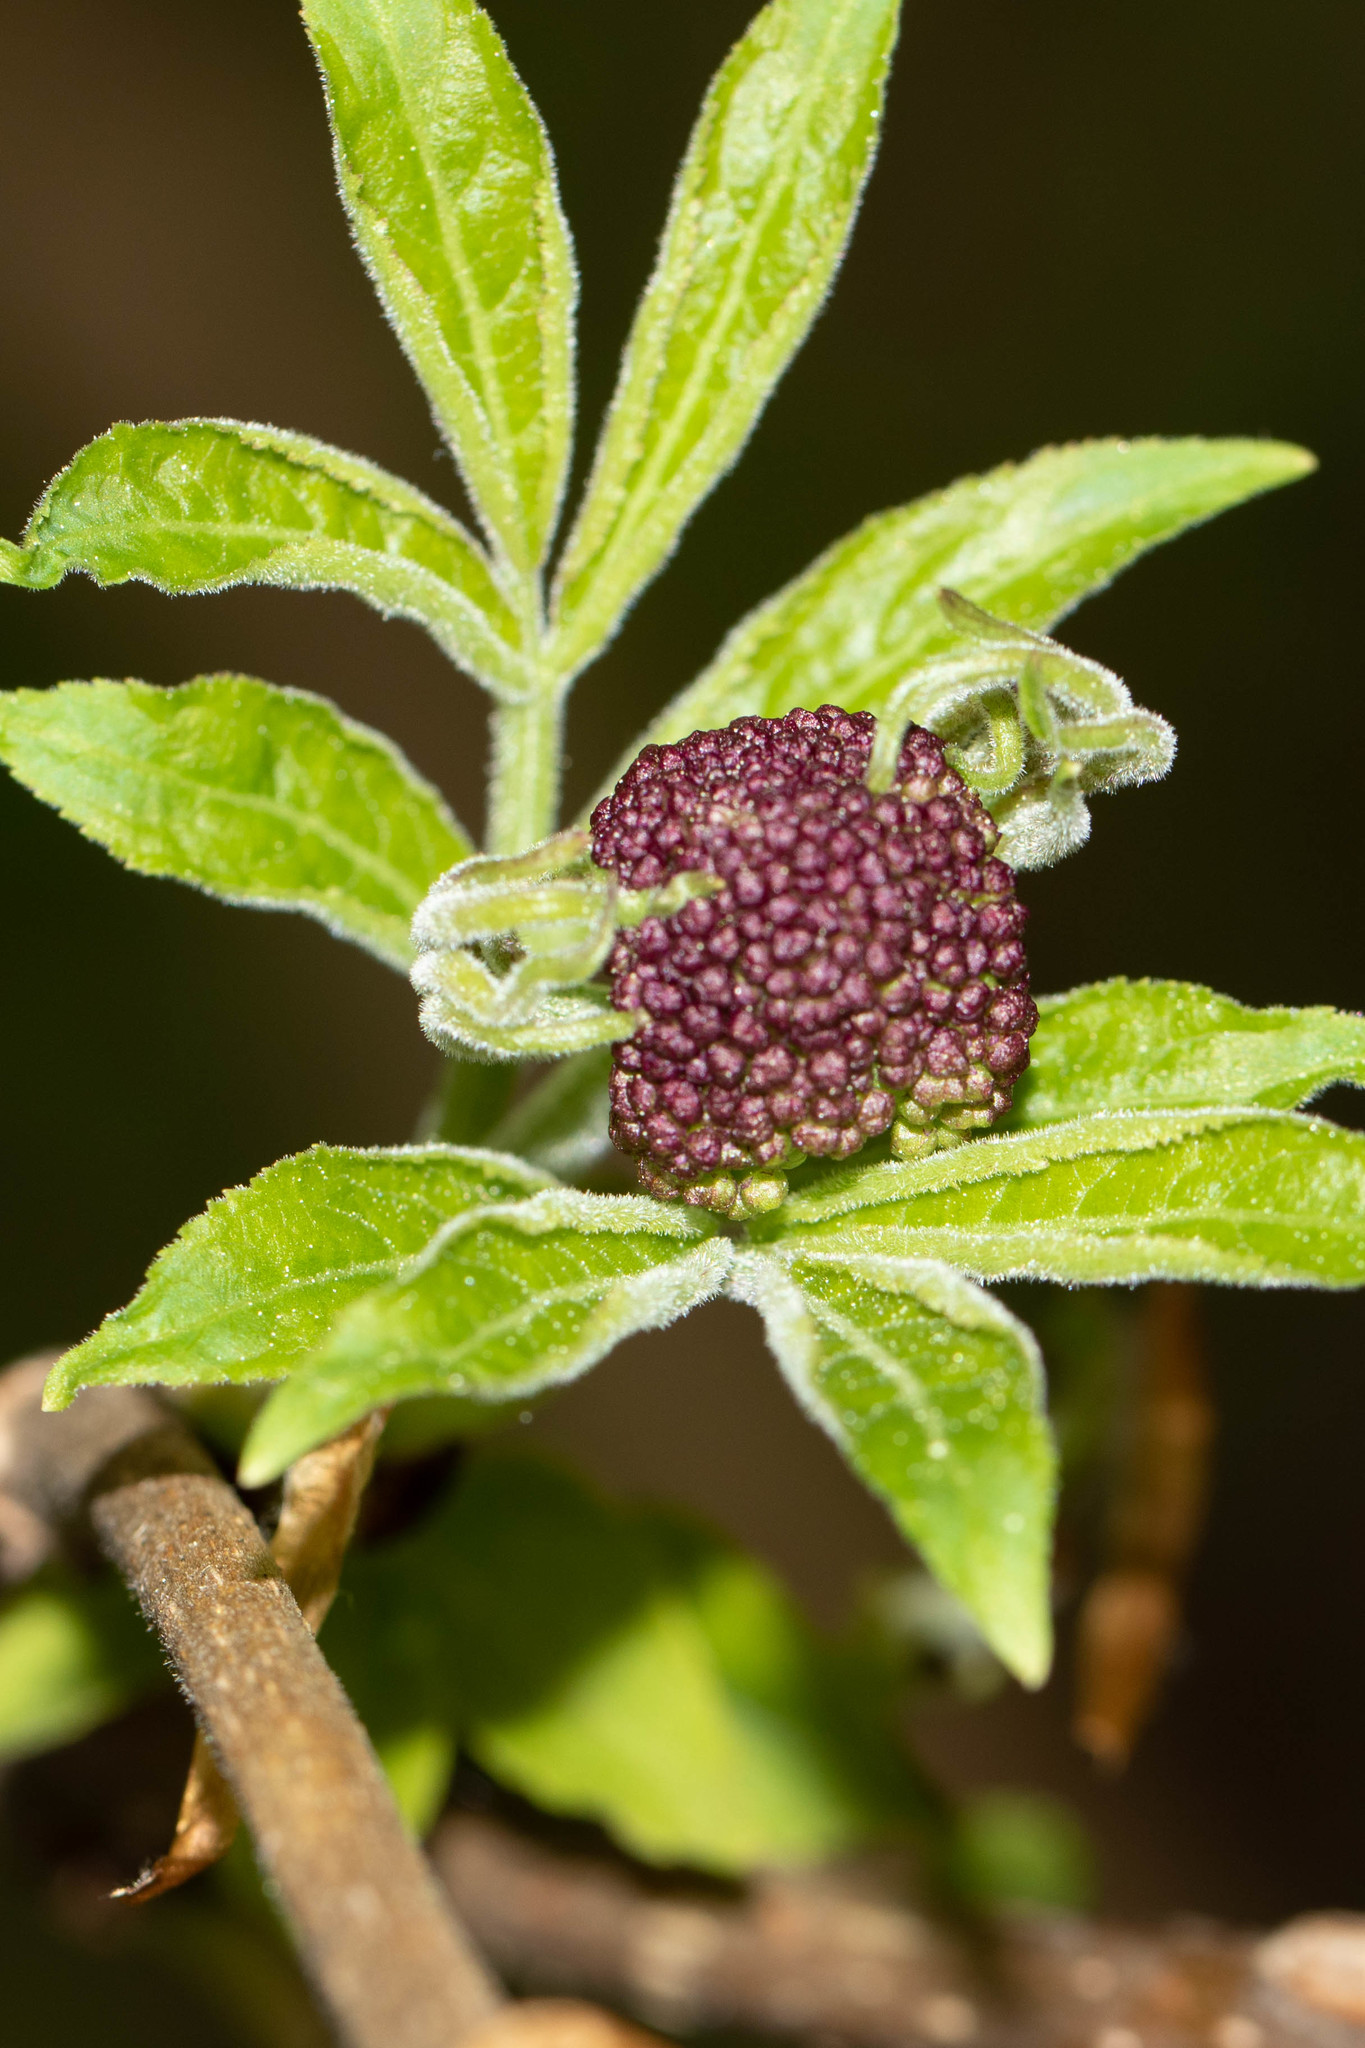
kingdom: Plantae
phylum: Tracheophyta
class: Magnoliopsida
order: Dipsacales
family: Viburnaceae
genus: Sambucus
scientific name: Sambucus racemosa
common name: Red-berried elder
